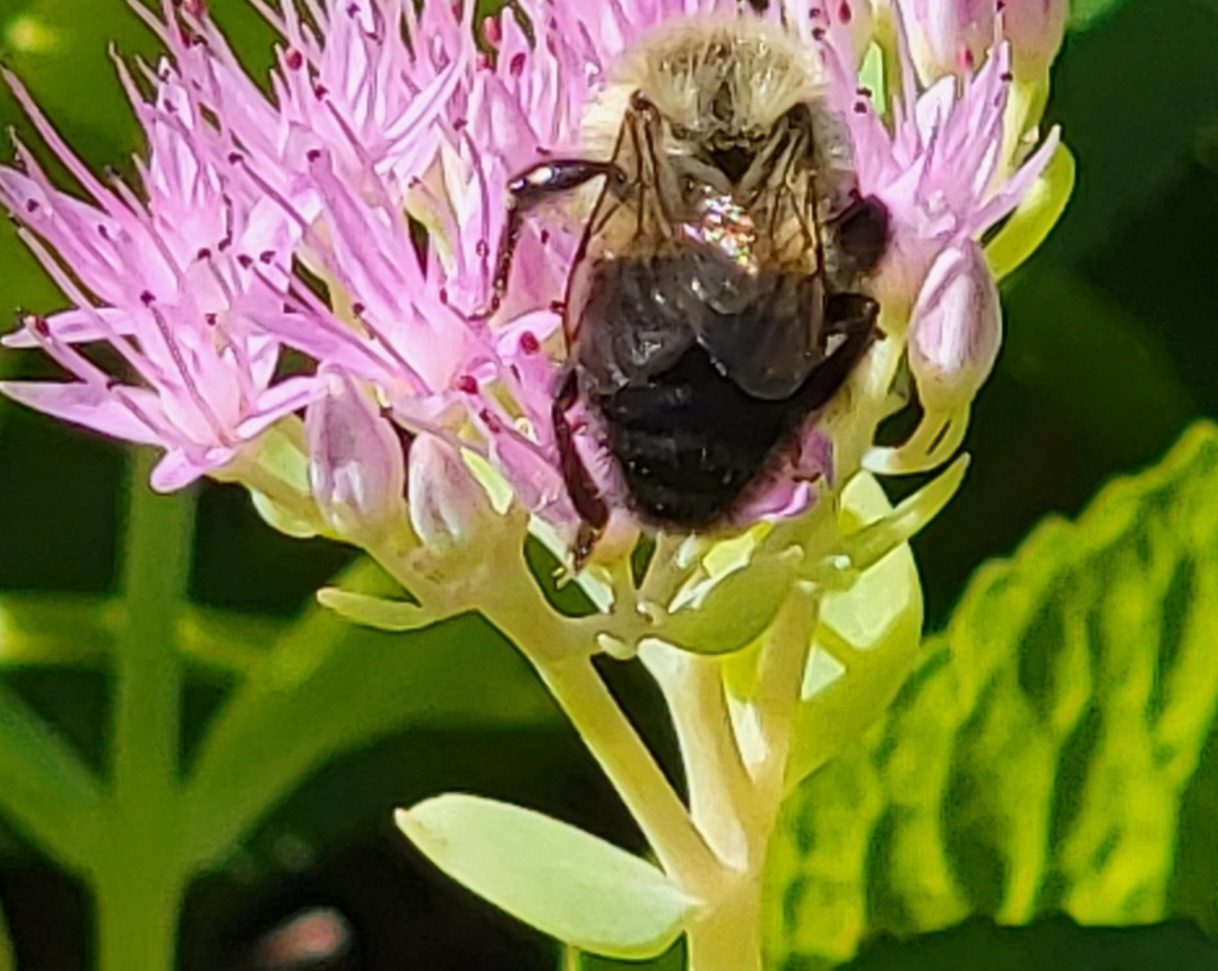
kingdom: Animalia
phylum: Arthropoda
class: Insecta
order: Hymenoptera
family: Apidae
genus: Bombus
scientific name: Bombus impatiens
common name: Common eastern bumble bee
